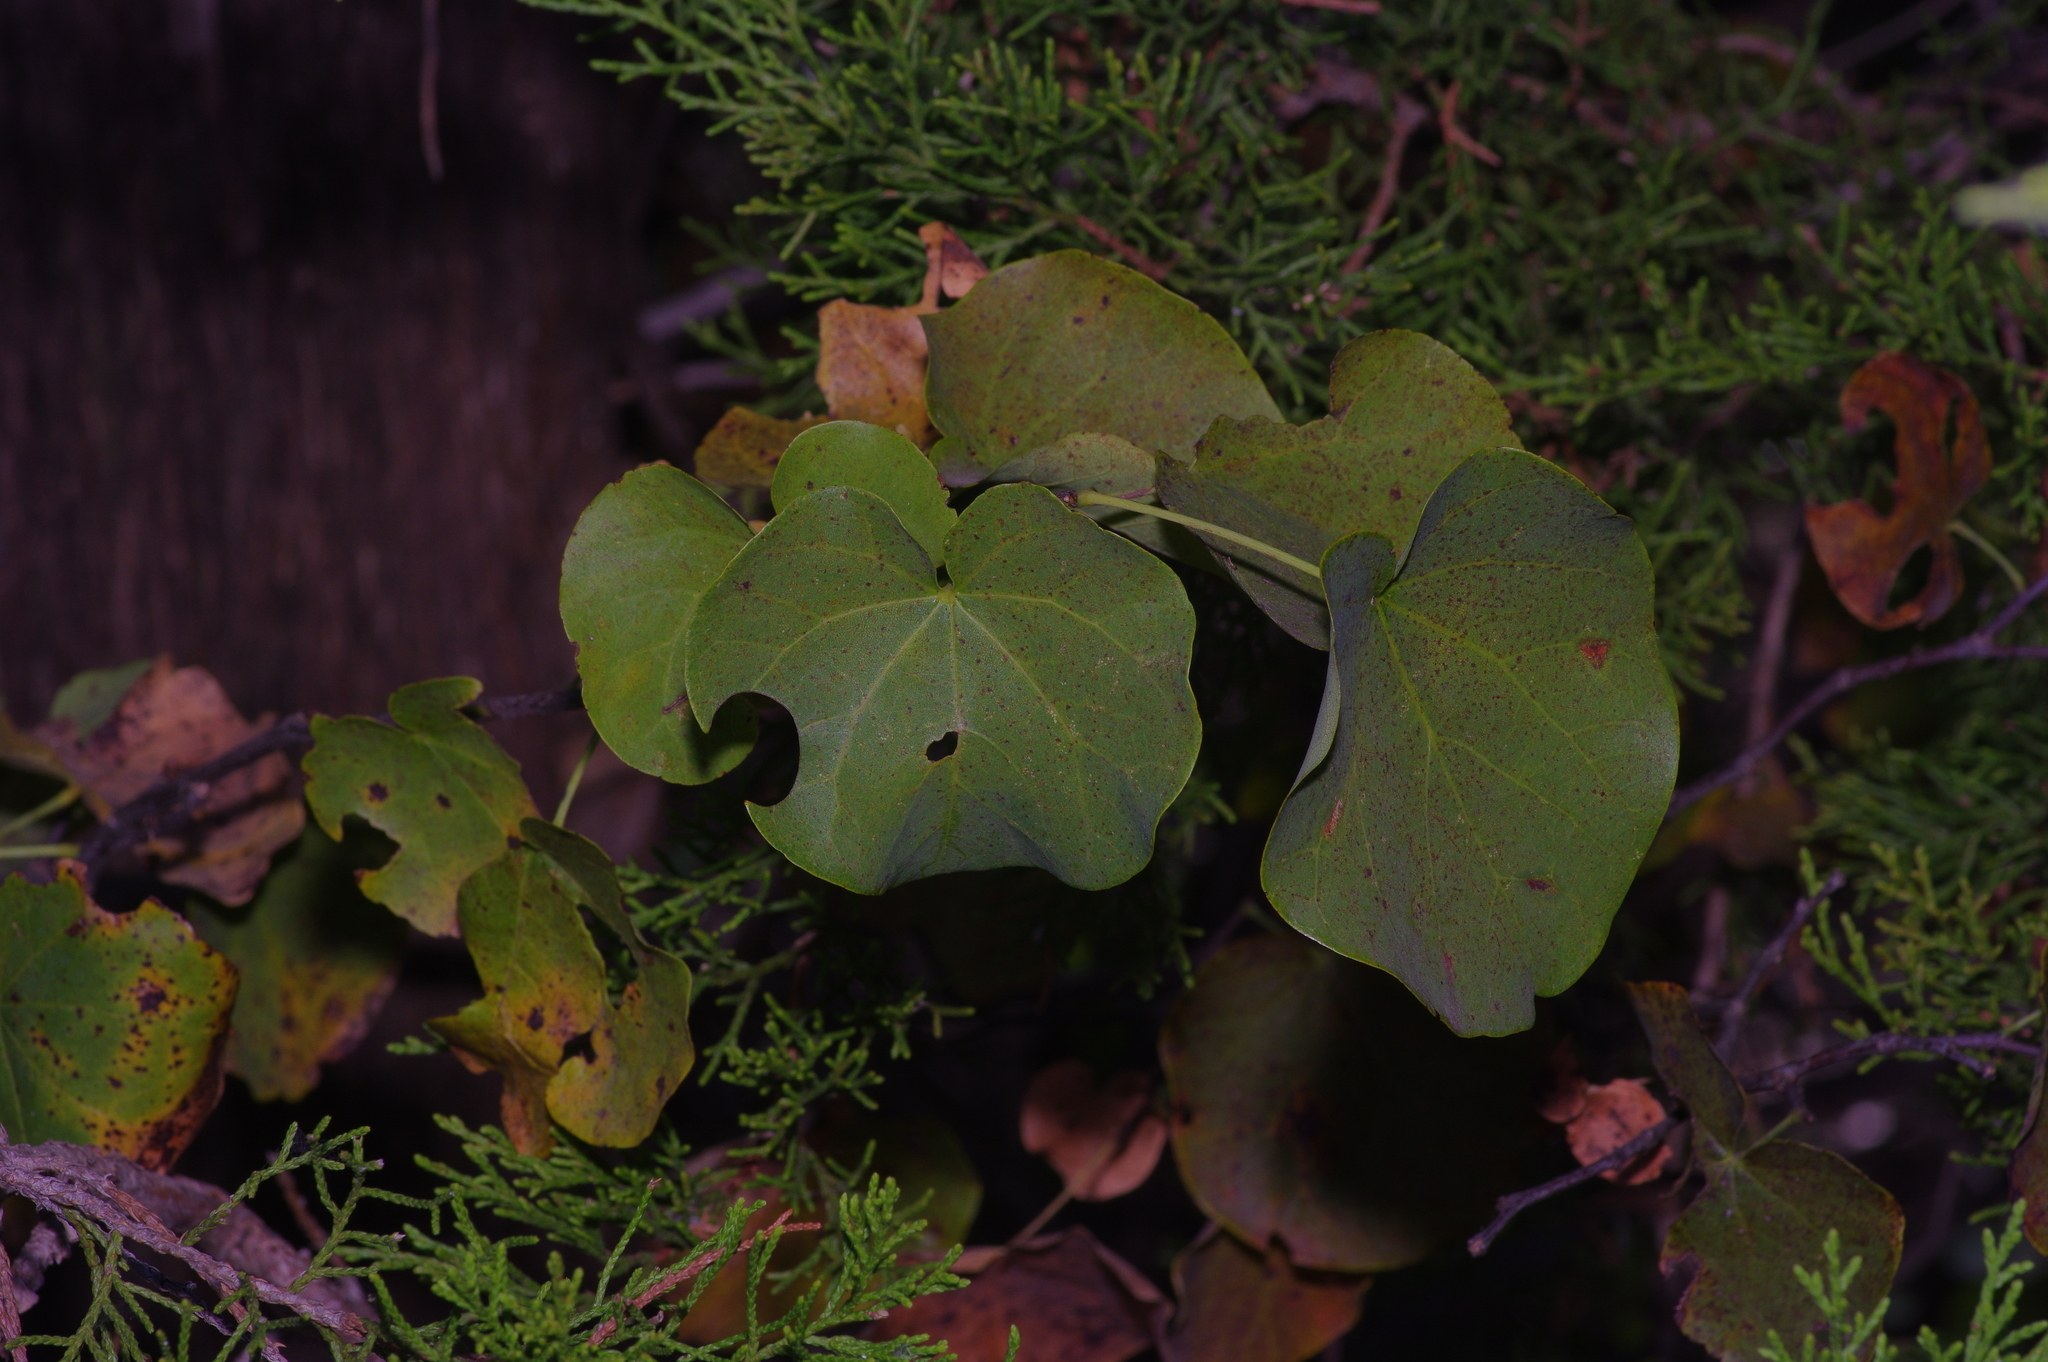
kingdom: Plantae
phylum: Tracheophyta
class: Magnoliopsida
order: Fabales
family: Fabaceae
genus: Cercis
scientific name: Cercis canadensis
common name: Eastern redbud
